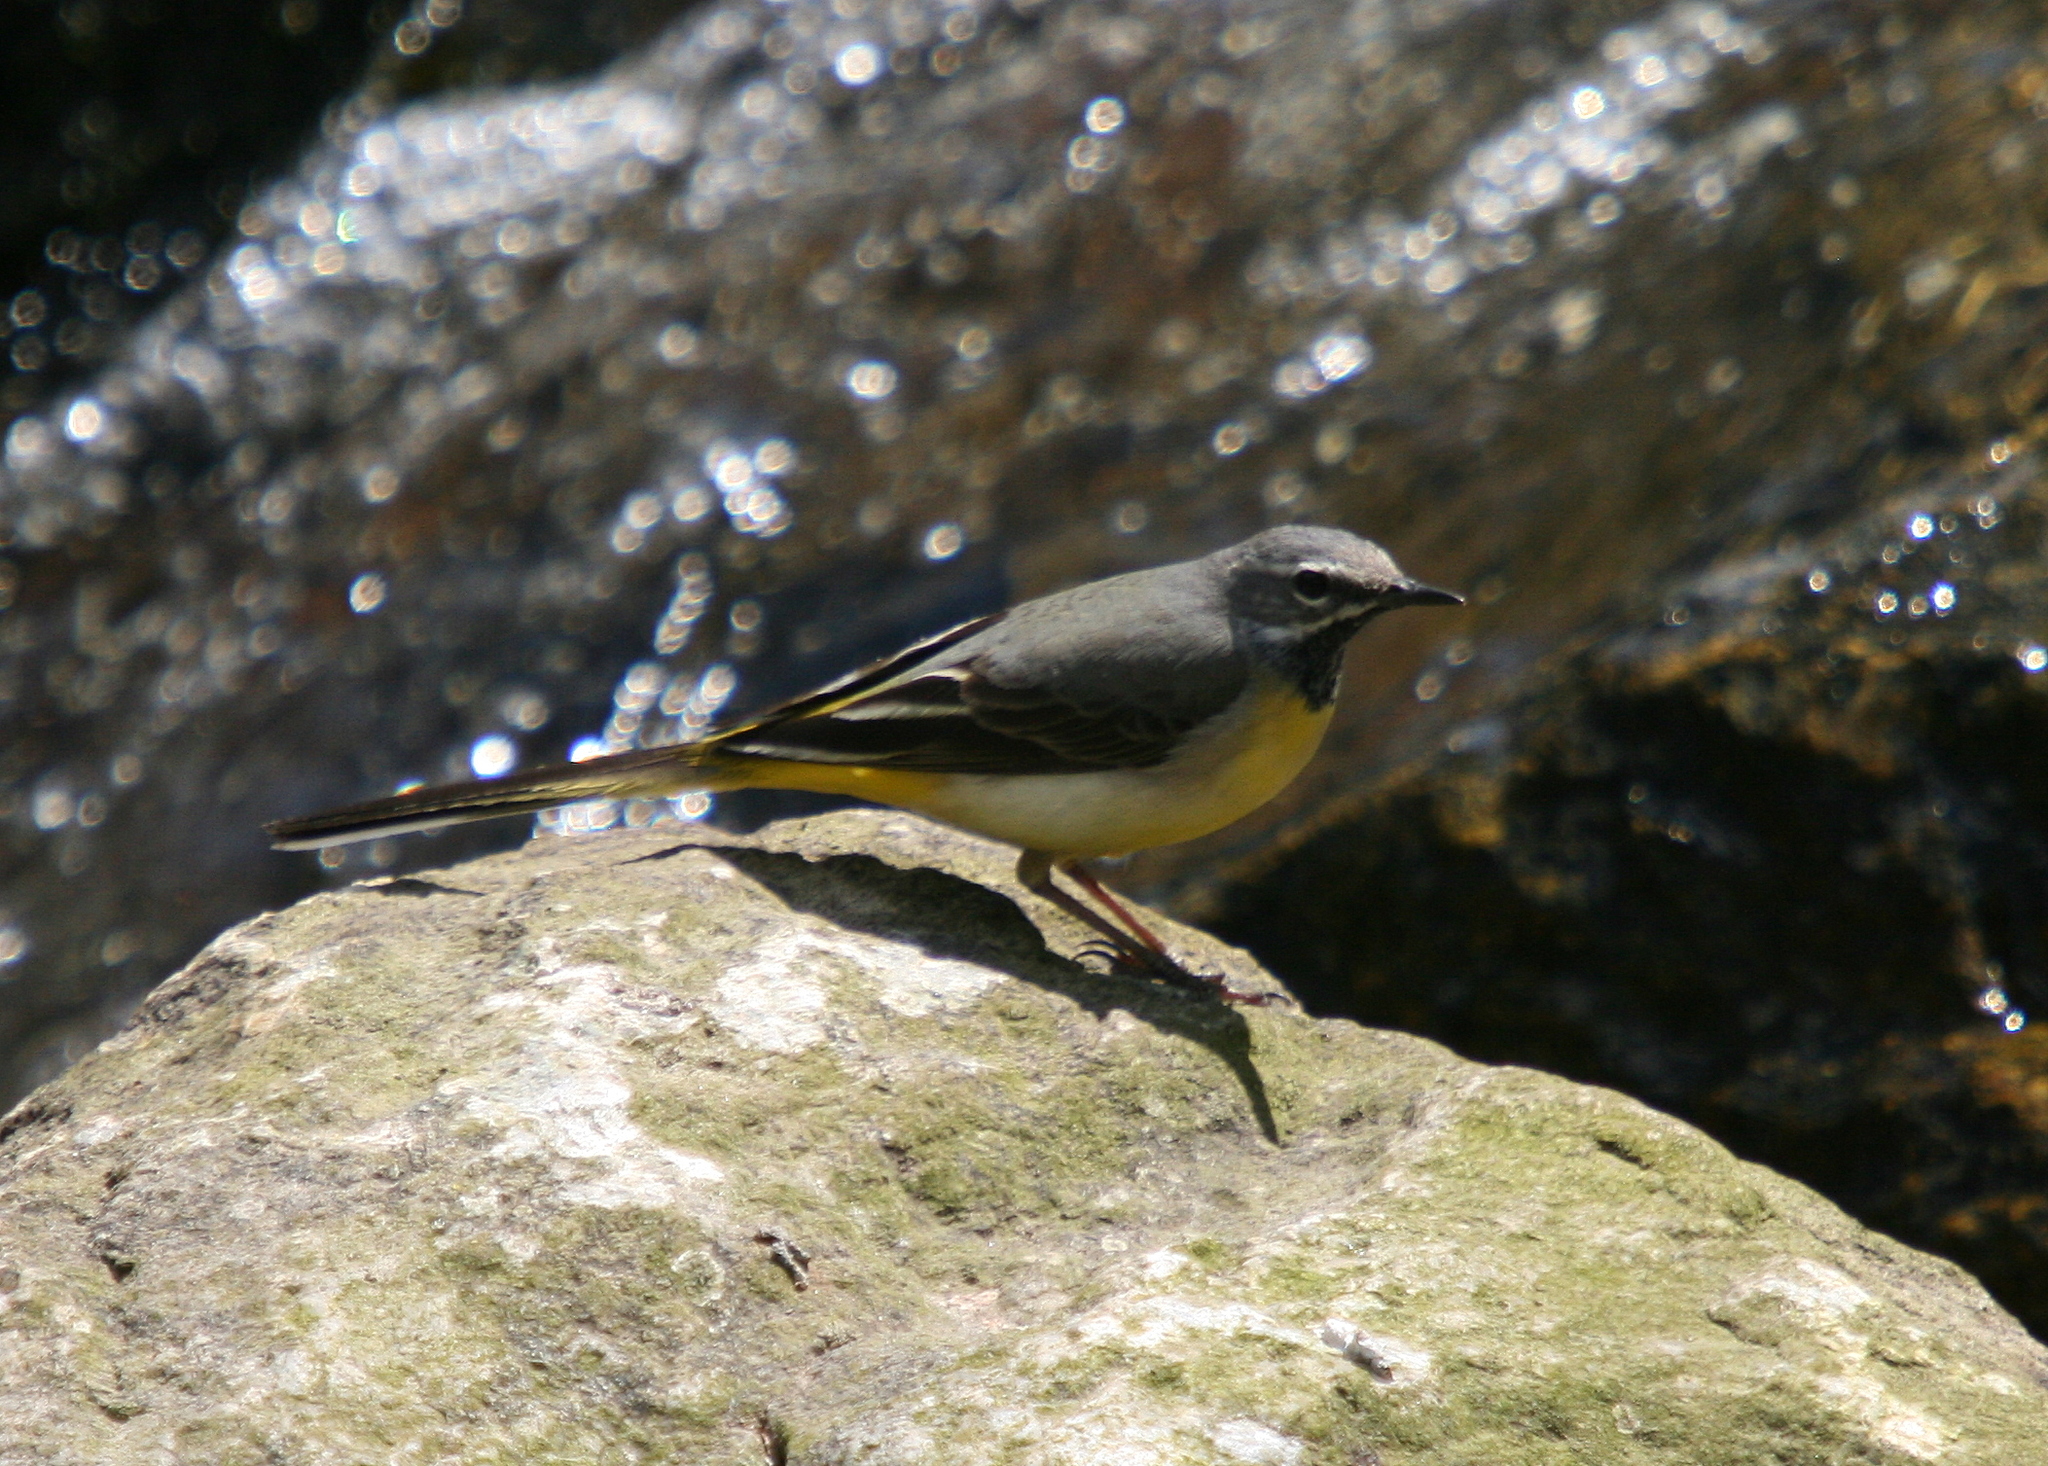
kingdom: Animalia
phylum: Chordata
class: Aves
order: Passeriformes
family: Motacillidae
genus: Motacilla
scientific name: Motacilla cinerea
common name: Grey wagtail
